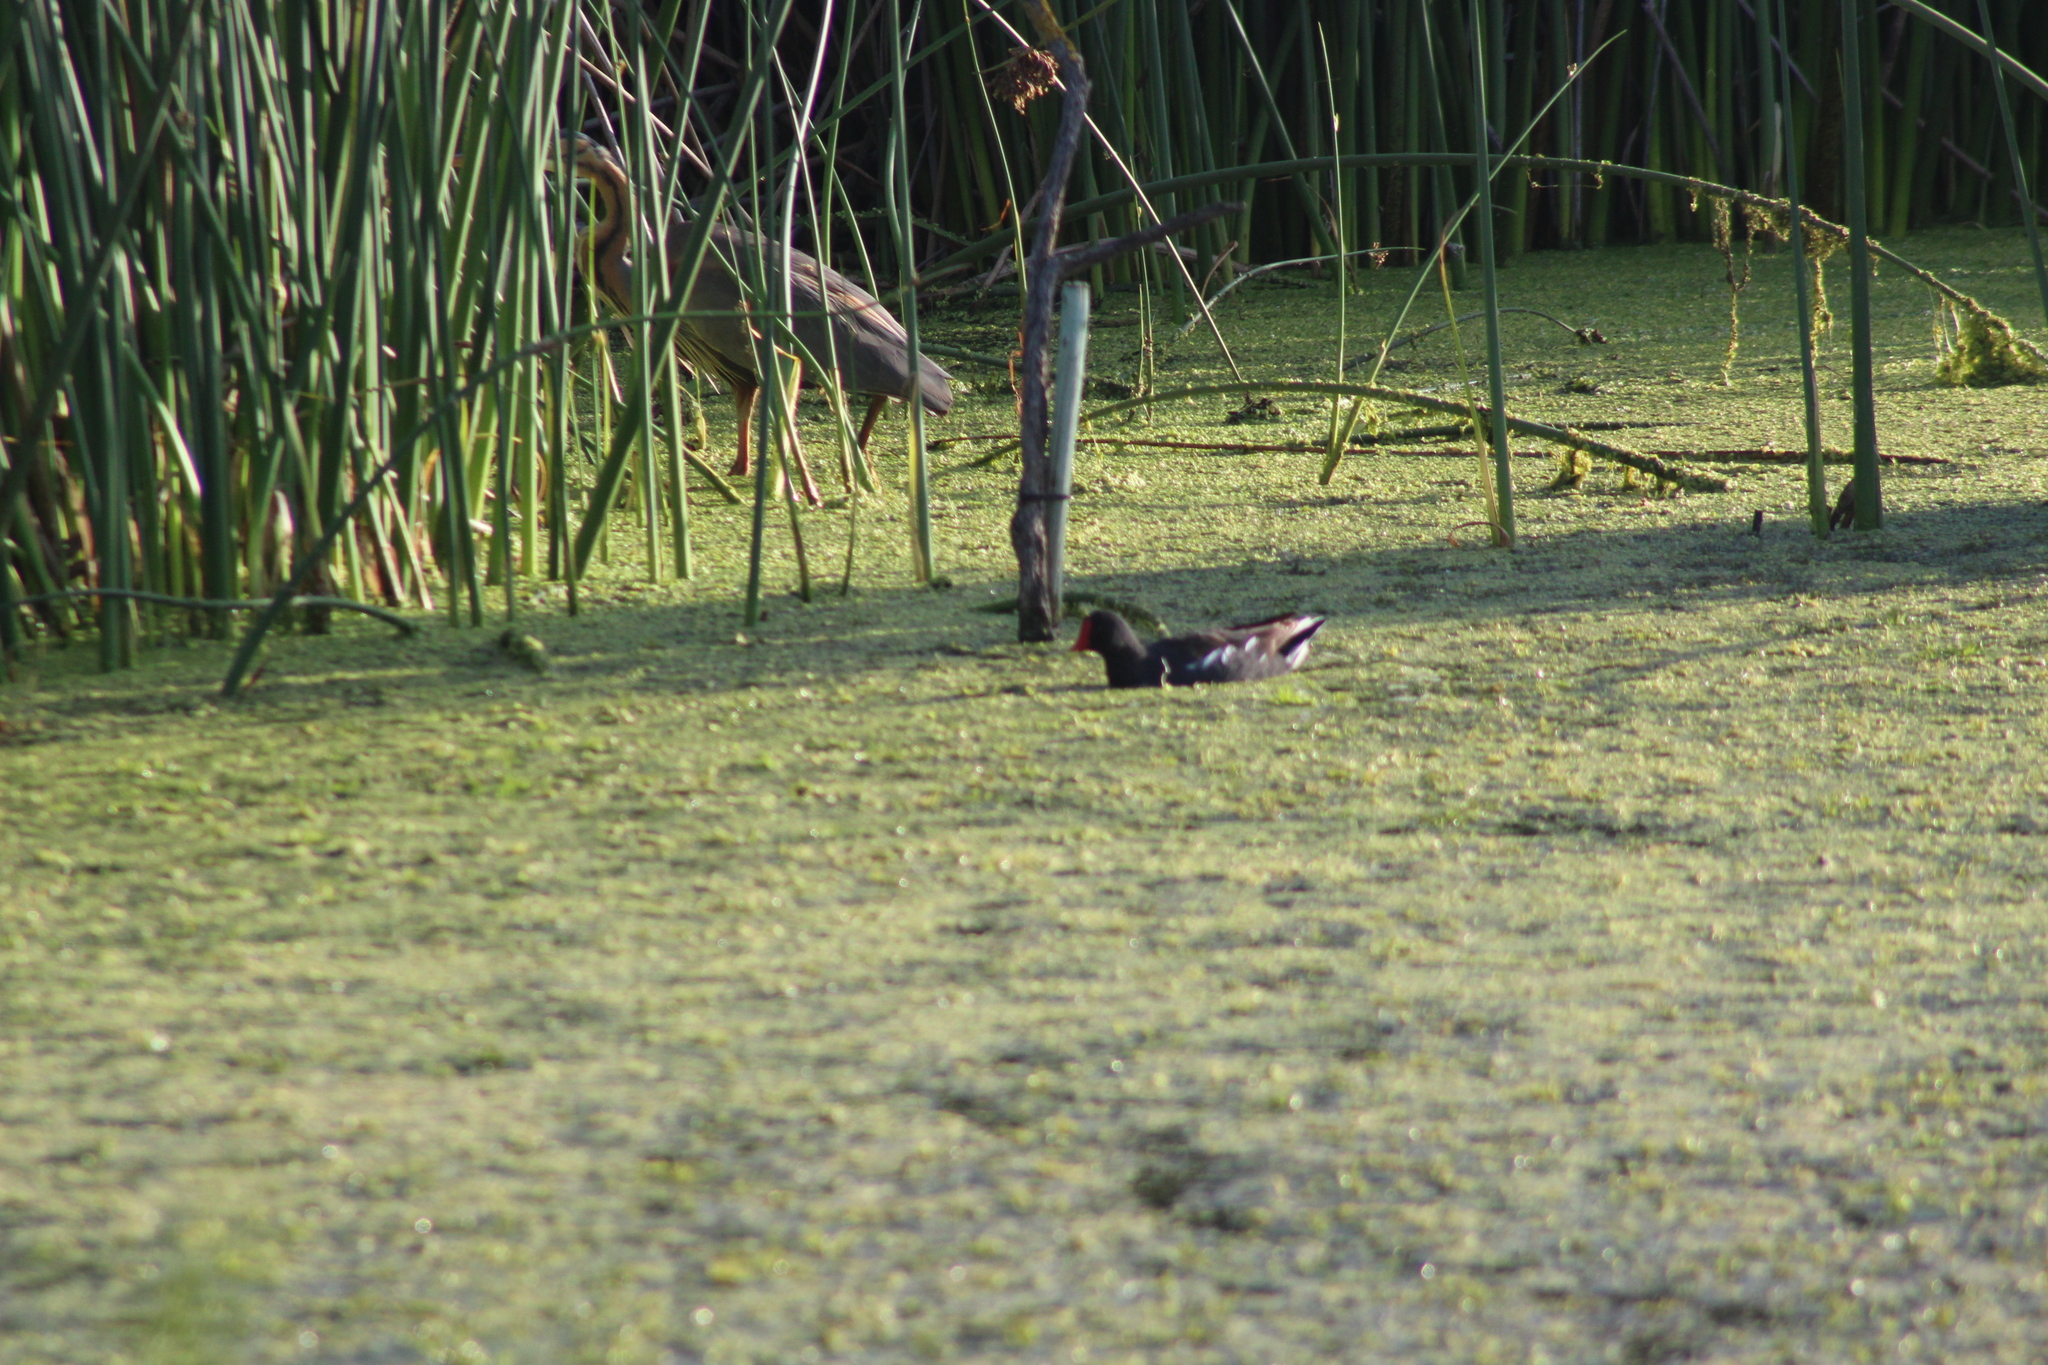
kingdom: Animalia
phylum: Chordata
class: Aves
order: Gruiformes
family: Rallidae
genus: Gallinula
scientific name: Gallinula chloropus
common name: Common moorhen
